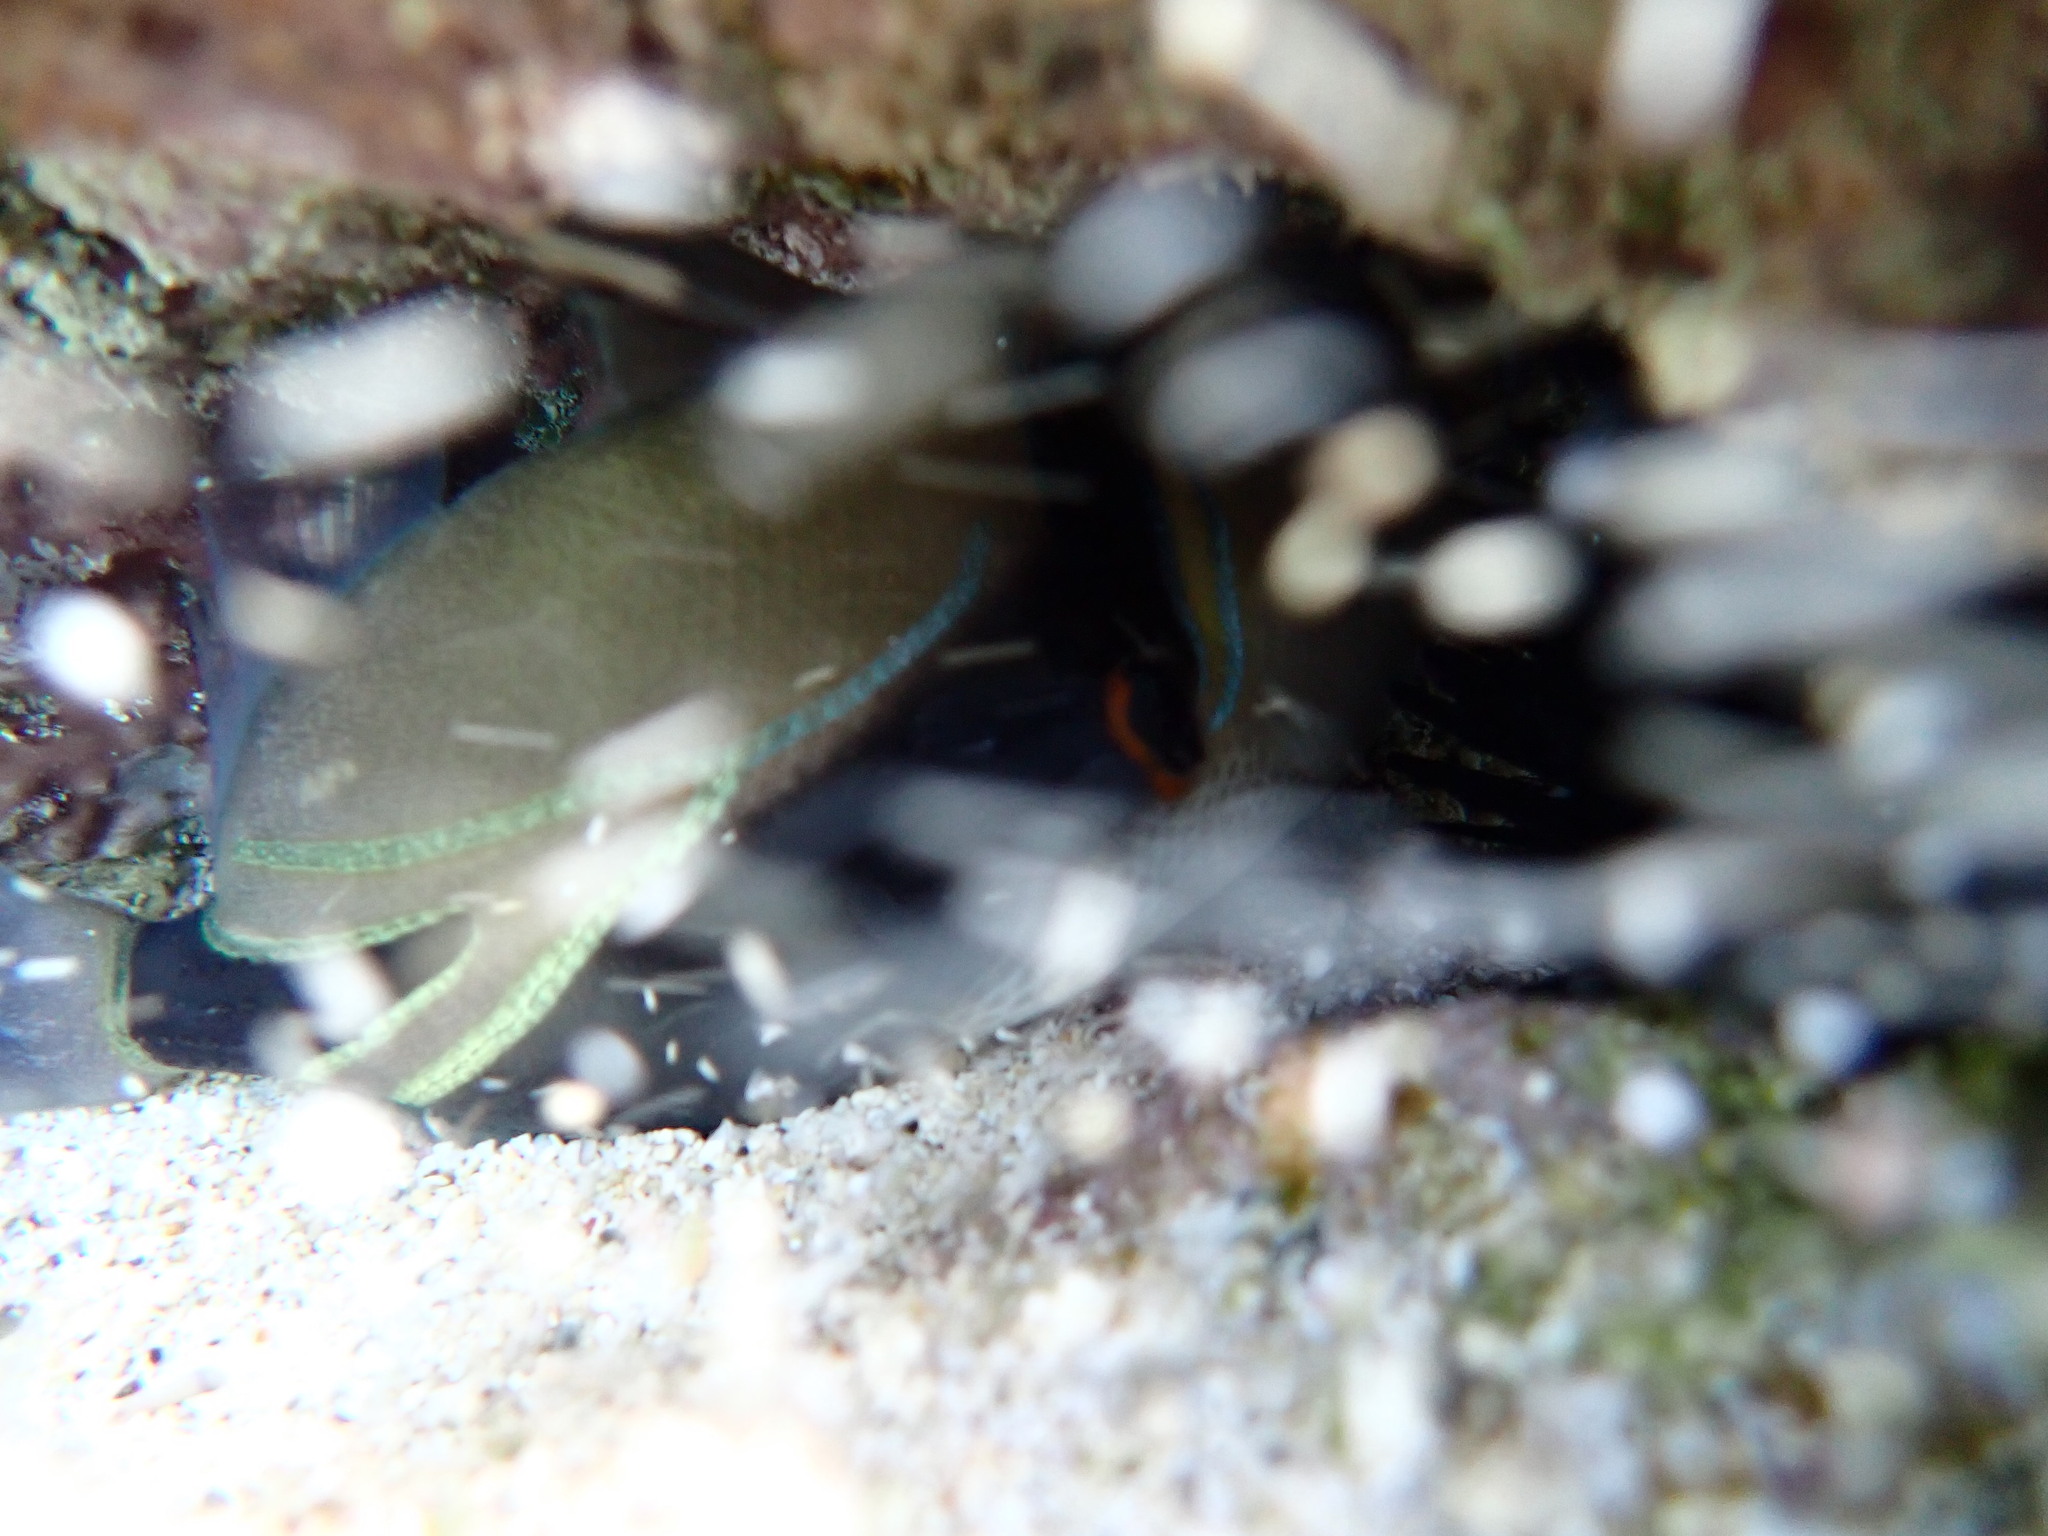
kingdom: Animalia
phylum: Chordata
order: Tetraodontiformes
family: Balistidae
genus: Rhinecanthus
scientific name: Rhinecanthus rectangulus
